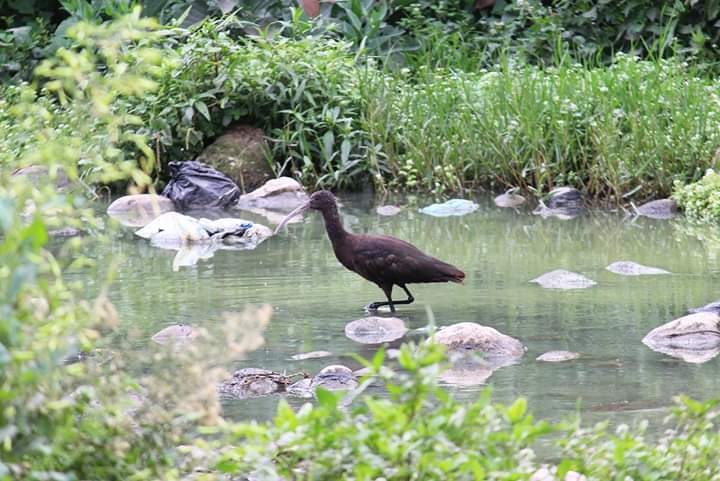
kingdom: Animalia
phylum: Chordata
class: Aves
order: Pelecaniformes
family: Threskiornithidae
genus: Plegadis
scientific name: Plegadis ridgwayi
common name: Puna ibis
